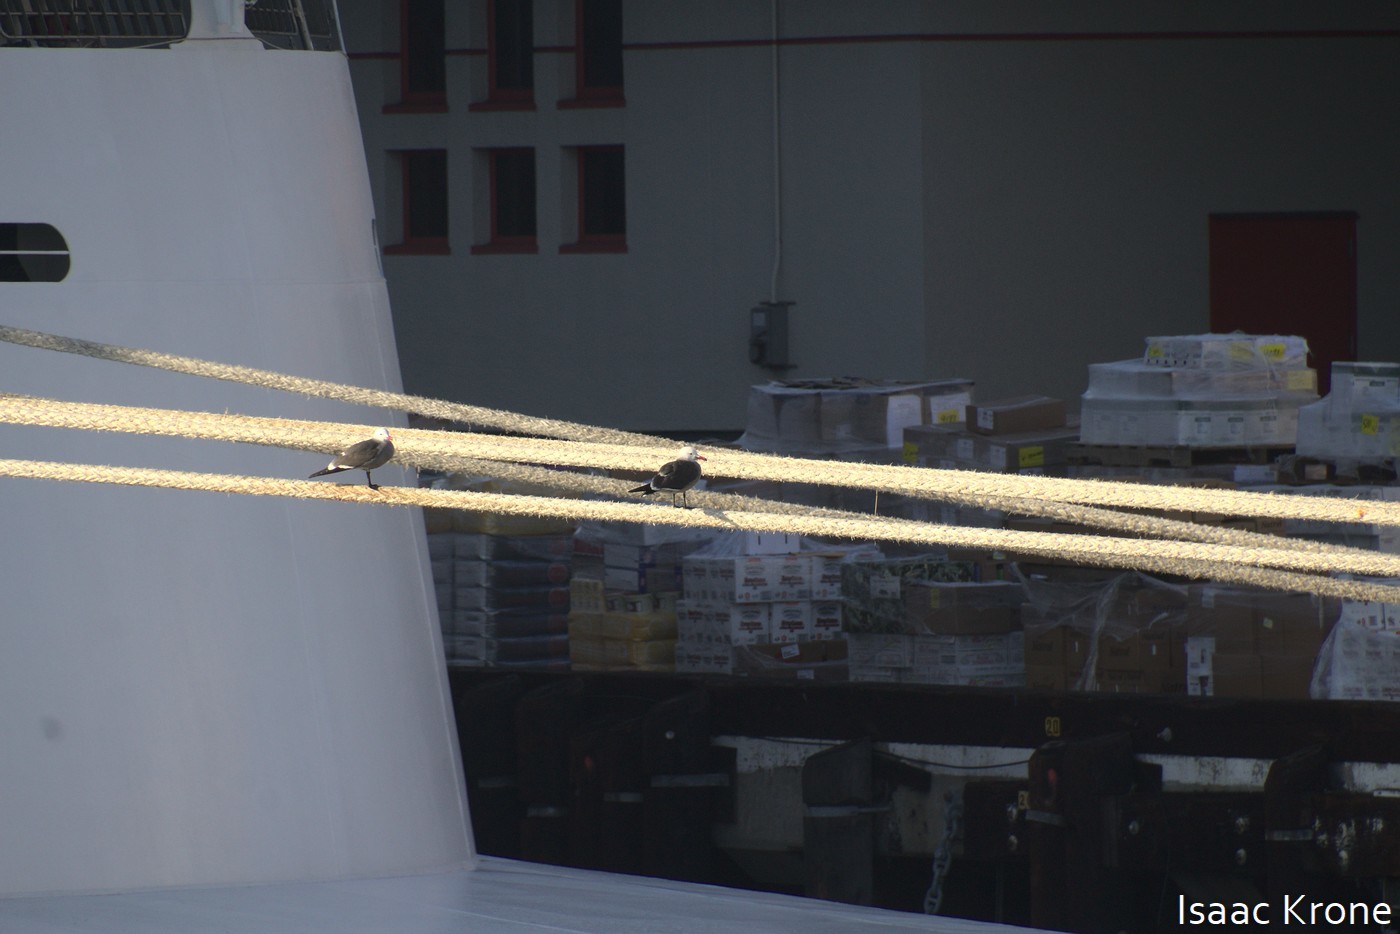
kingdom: Animalia
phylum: Chordata
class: Aves
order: Charadriiformes
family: Laridae
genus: Larus
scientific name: Larus heermanni
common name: Heermann's gull
